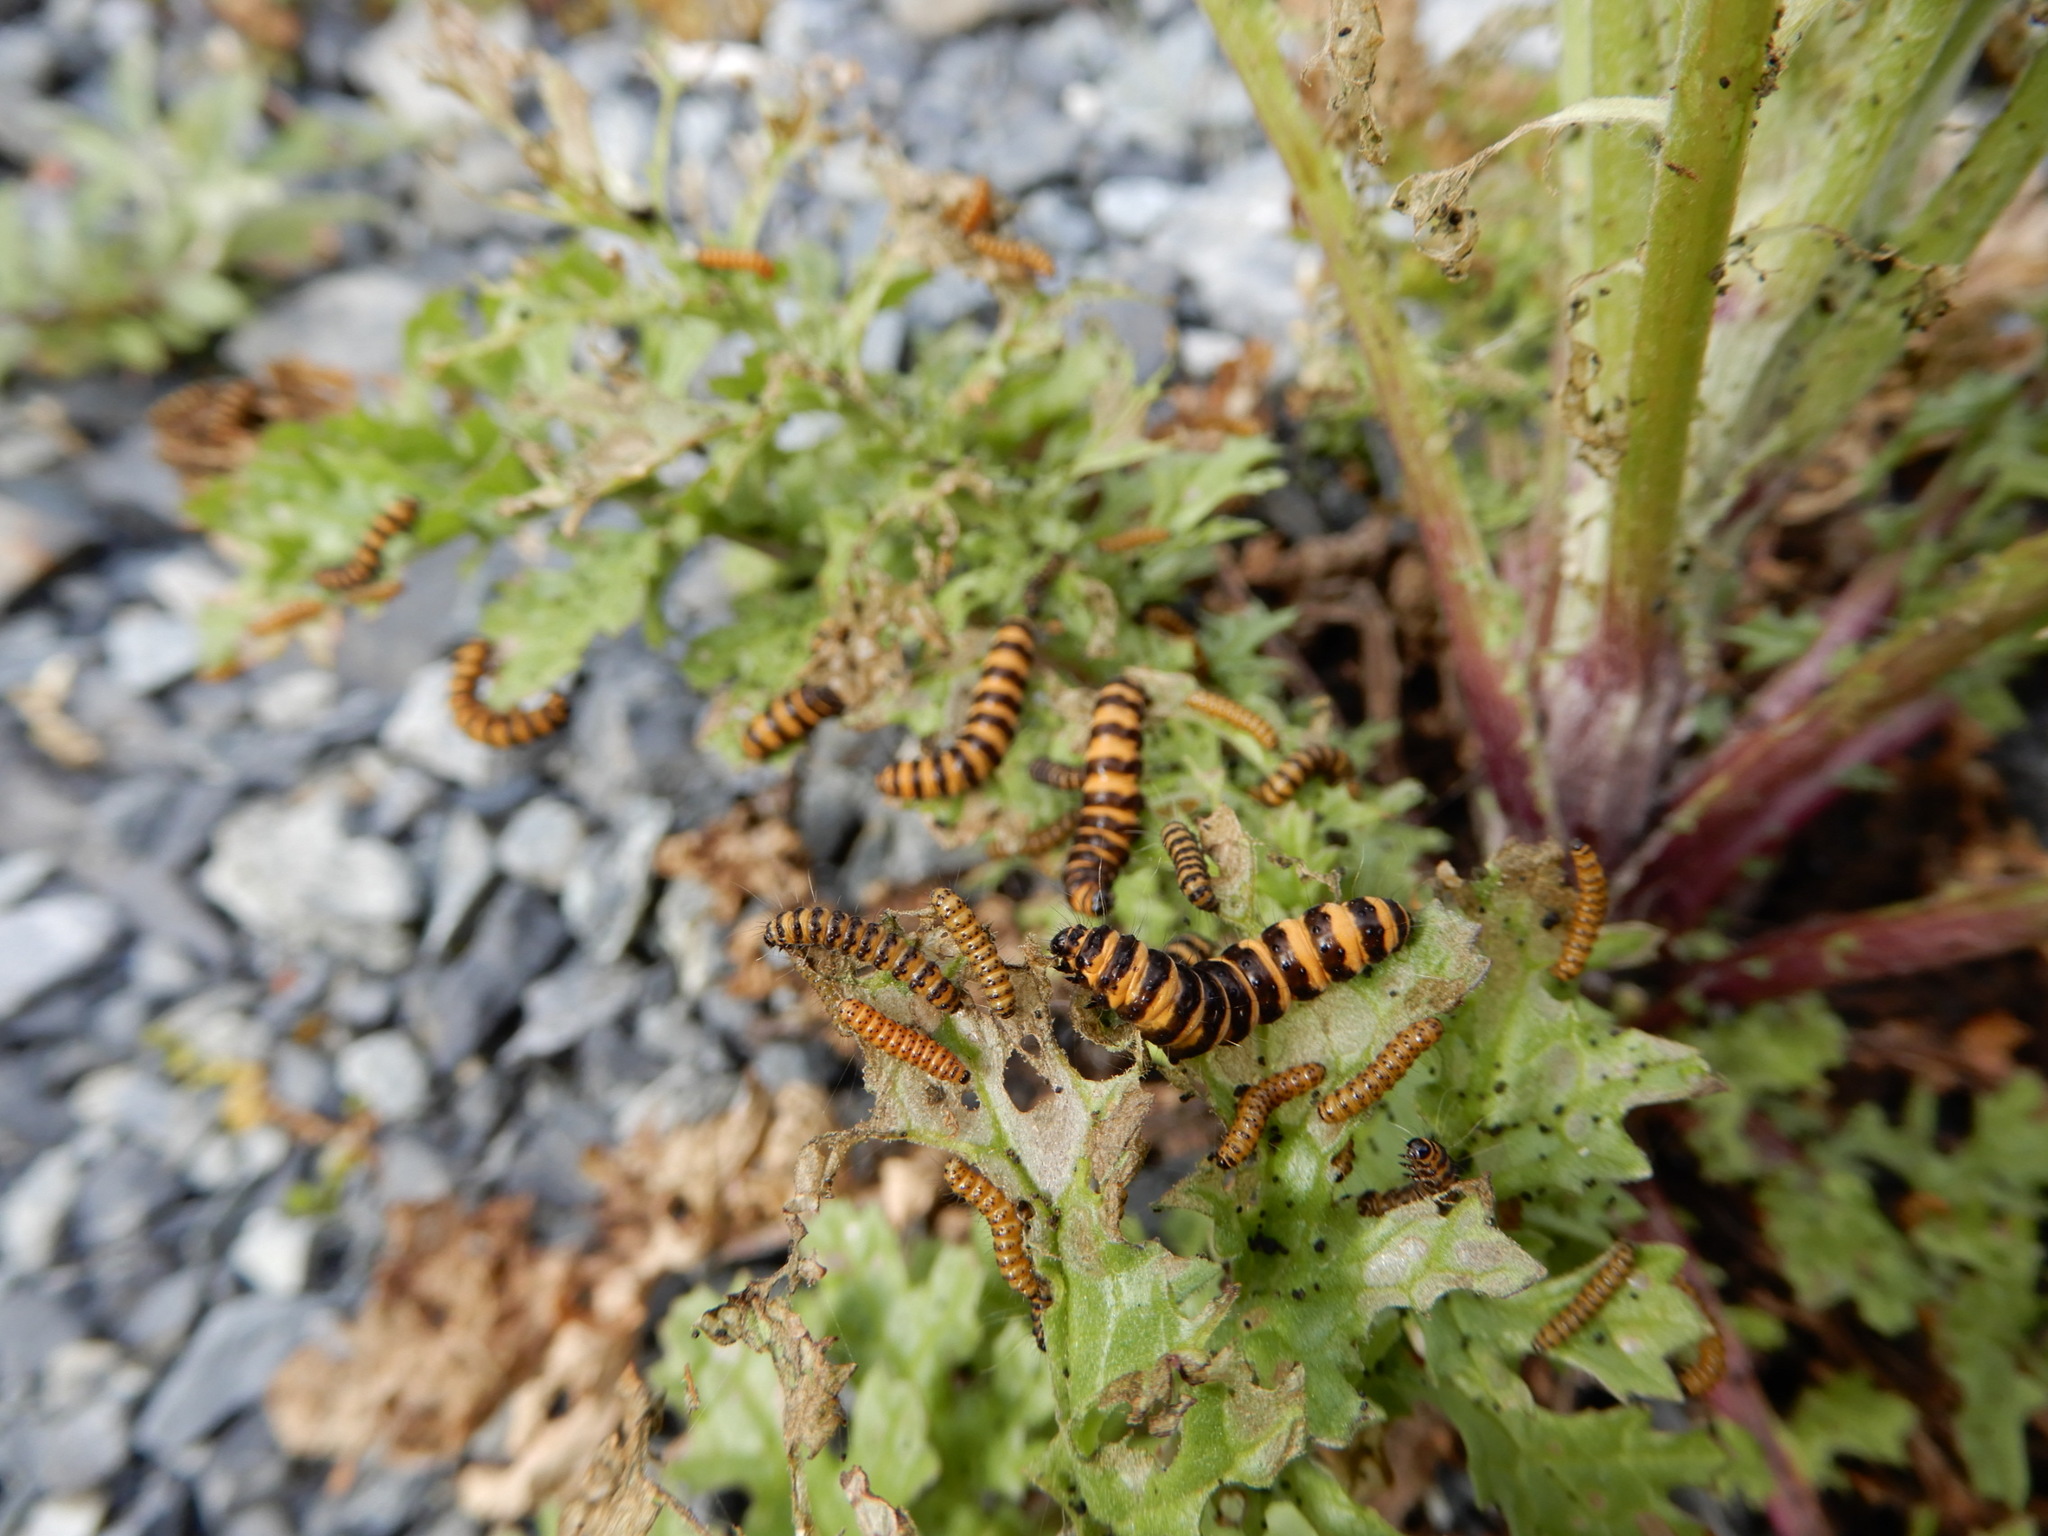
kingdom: Animalia
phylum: Arthropoda
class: Insecta
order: Lepidoptera
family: Erebidae
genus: Tyria
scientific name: Tyria jacobaeae
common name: Cinnabar
